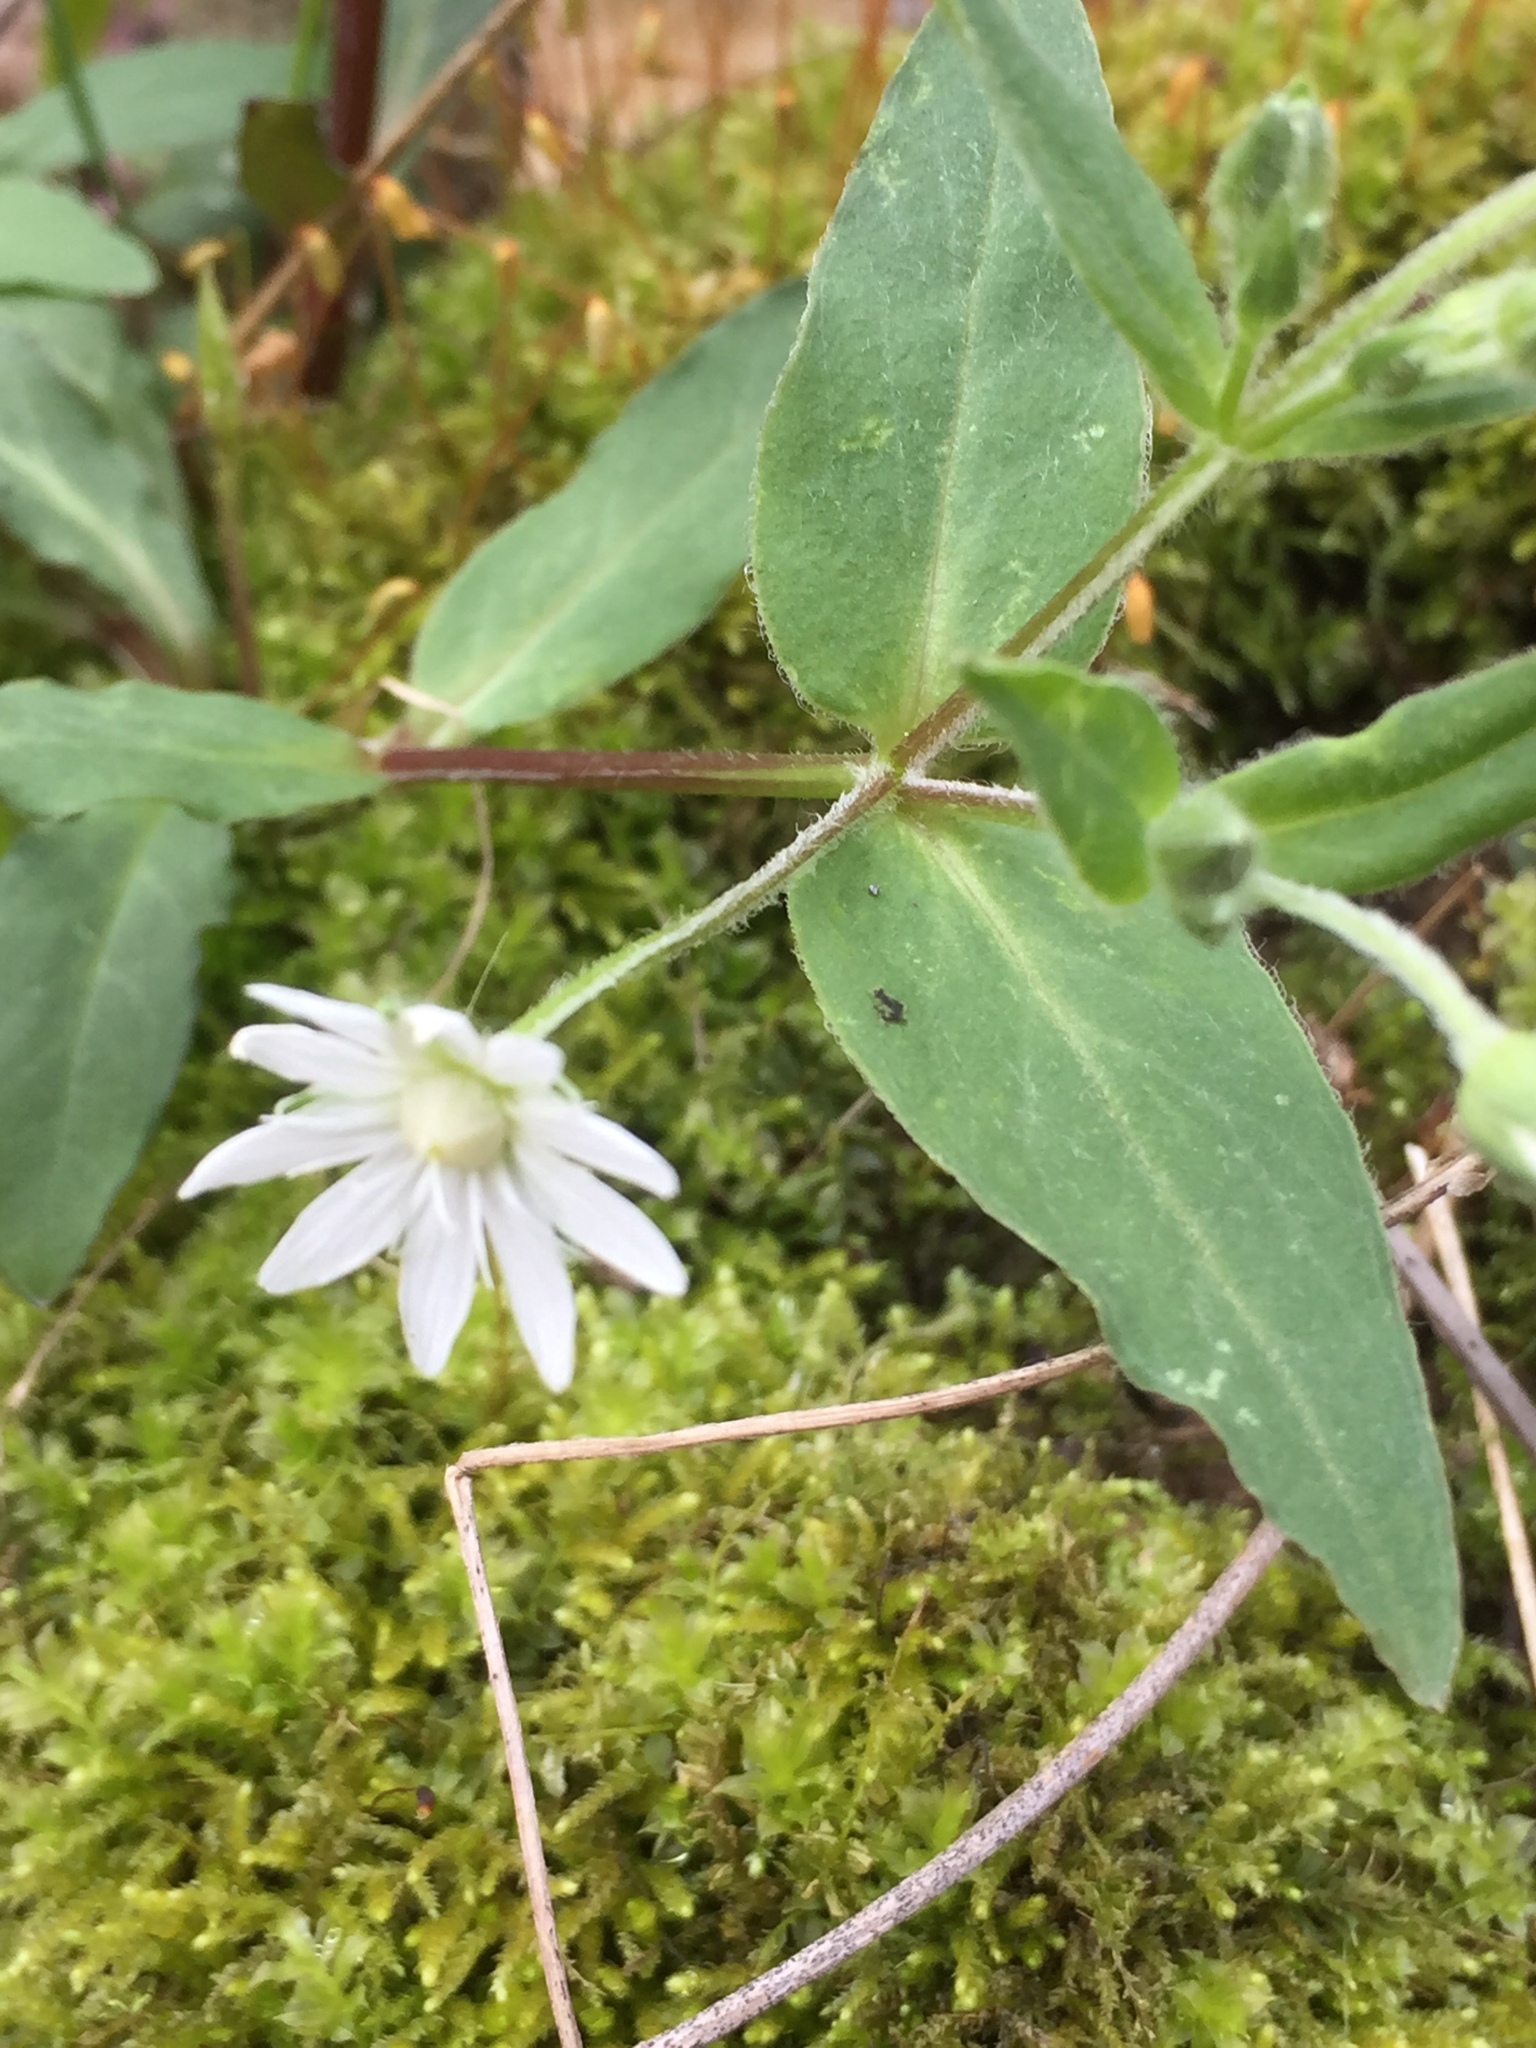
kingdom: Plantae
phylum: Tracheophyta
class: Magnoliopsida
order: Caryophyllales
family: Caryophyllaceae
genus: Stellaria
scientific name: Stellaria pubera
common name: Star chickweed
